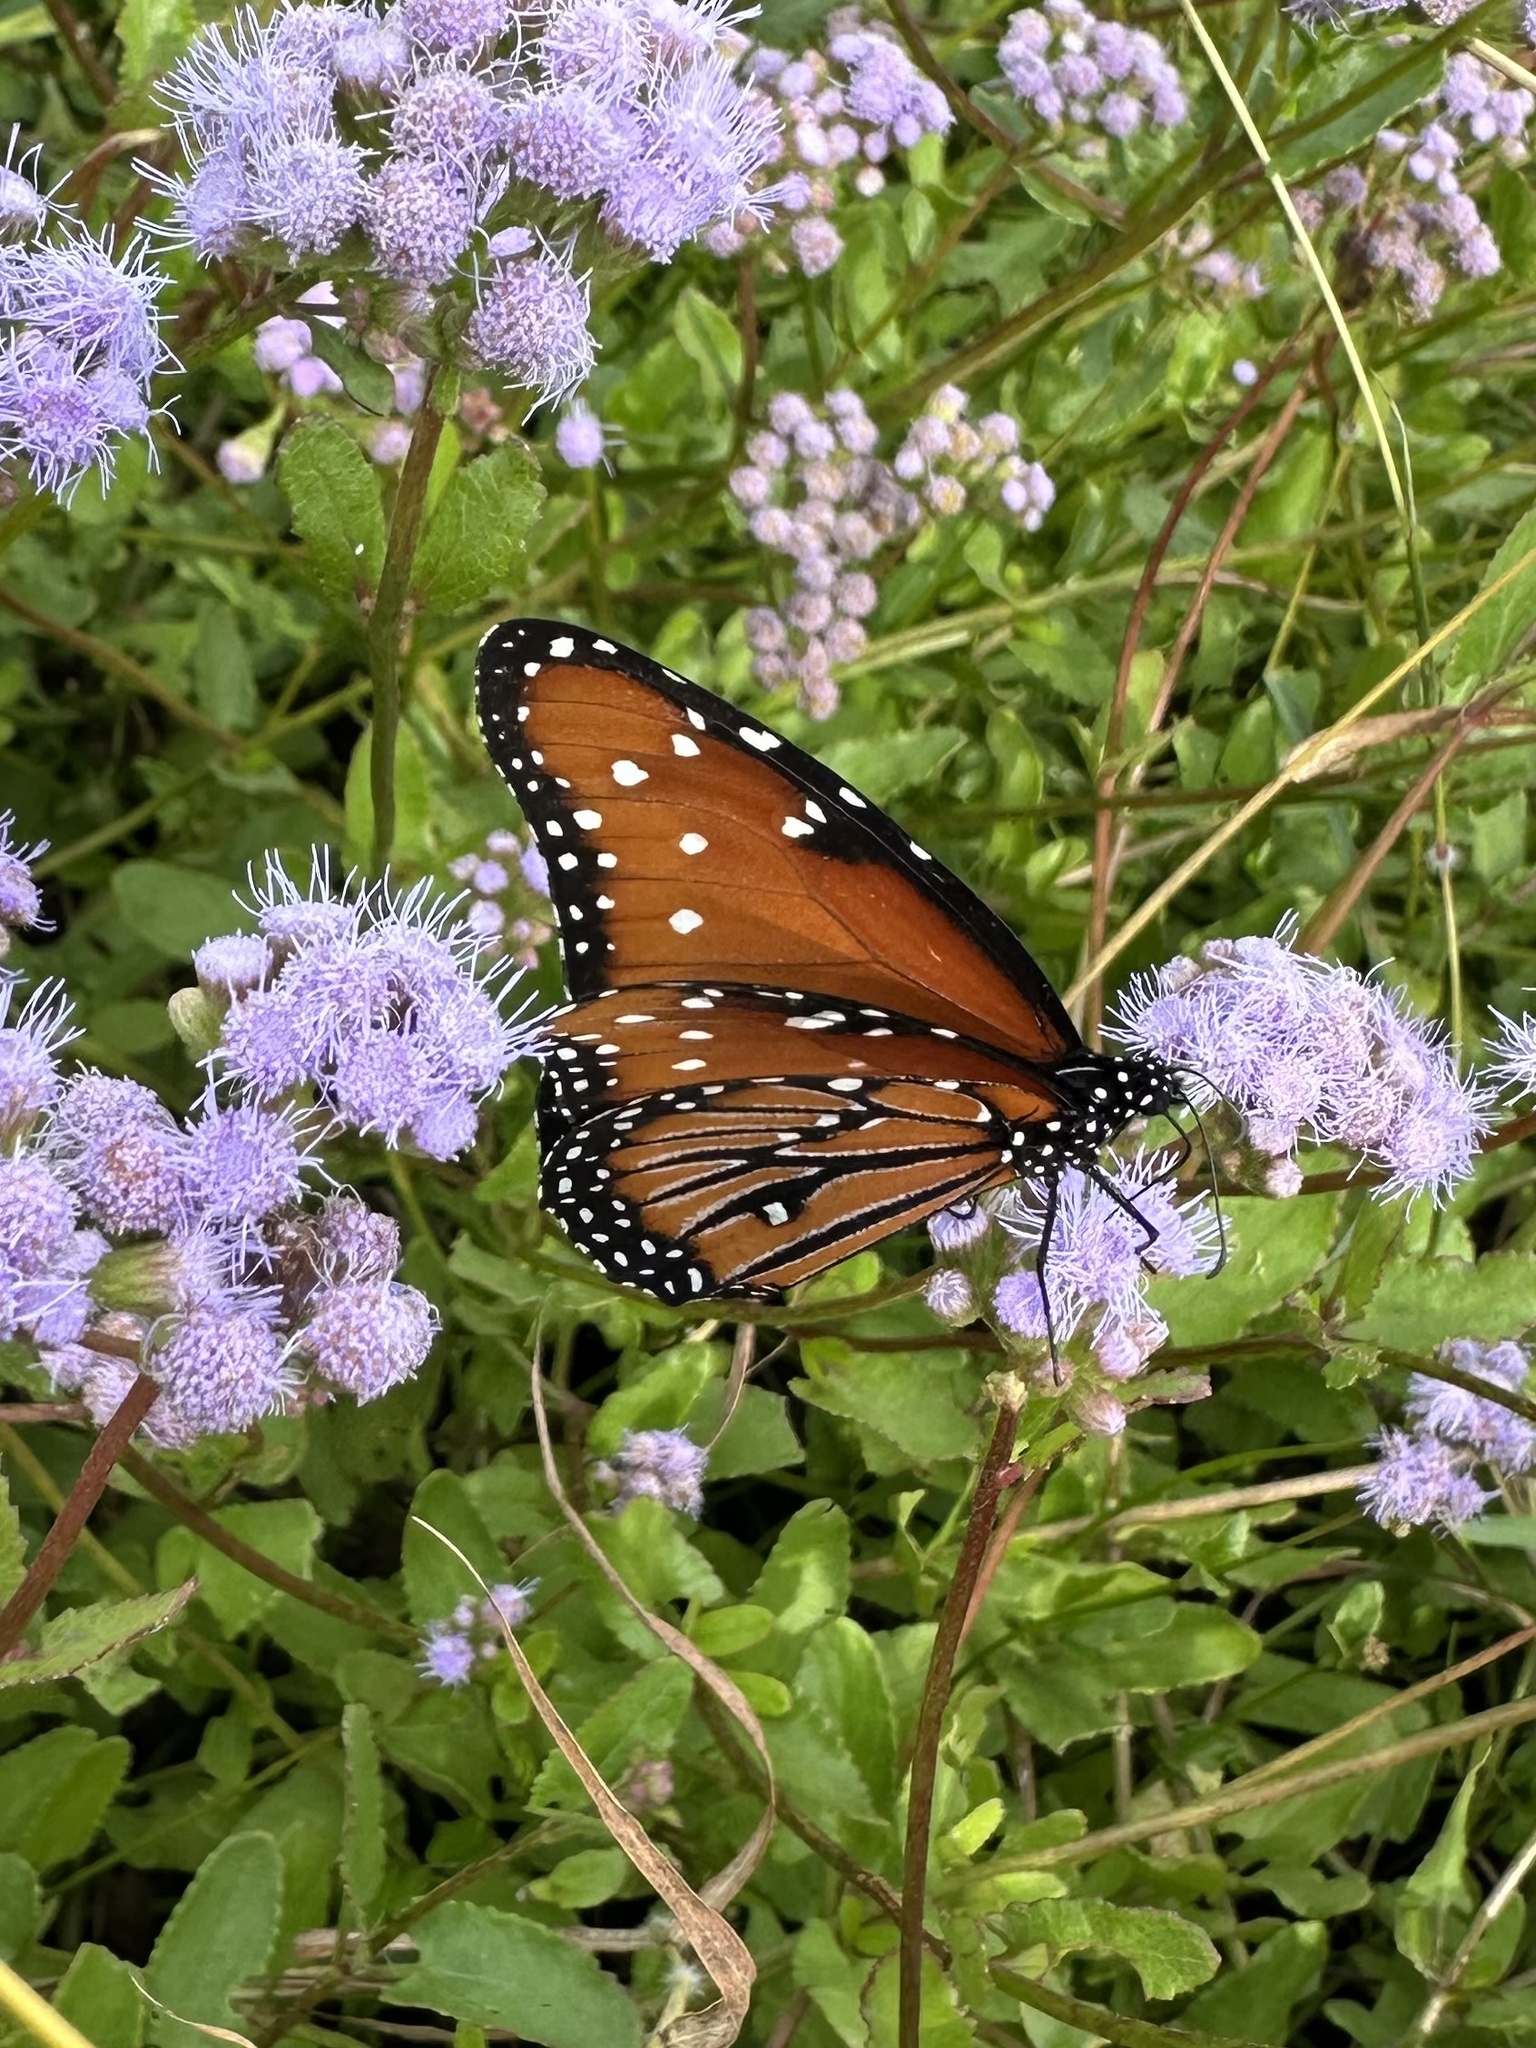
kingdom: Animalia
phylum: Arthropoda
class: Insecta
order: Lepidoptera
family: Nymphalidae
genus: Danaus
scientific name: Danaus gilippus
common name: Queen
